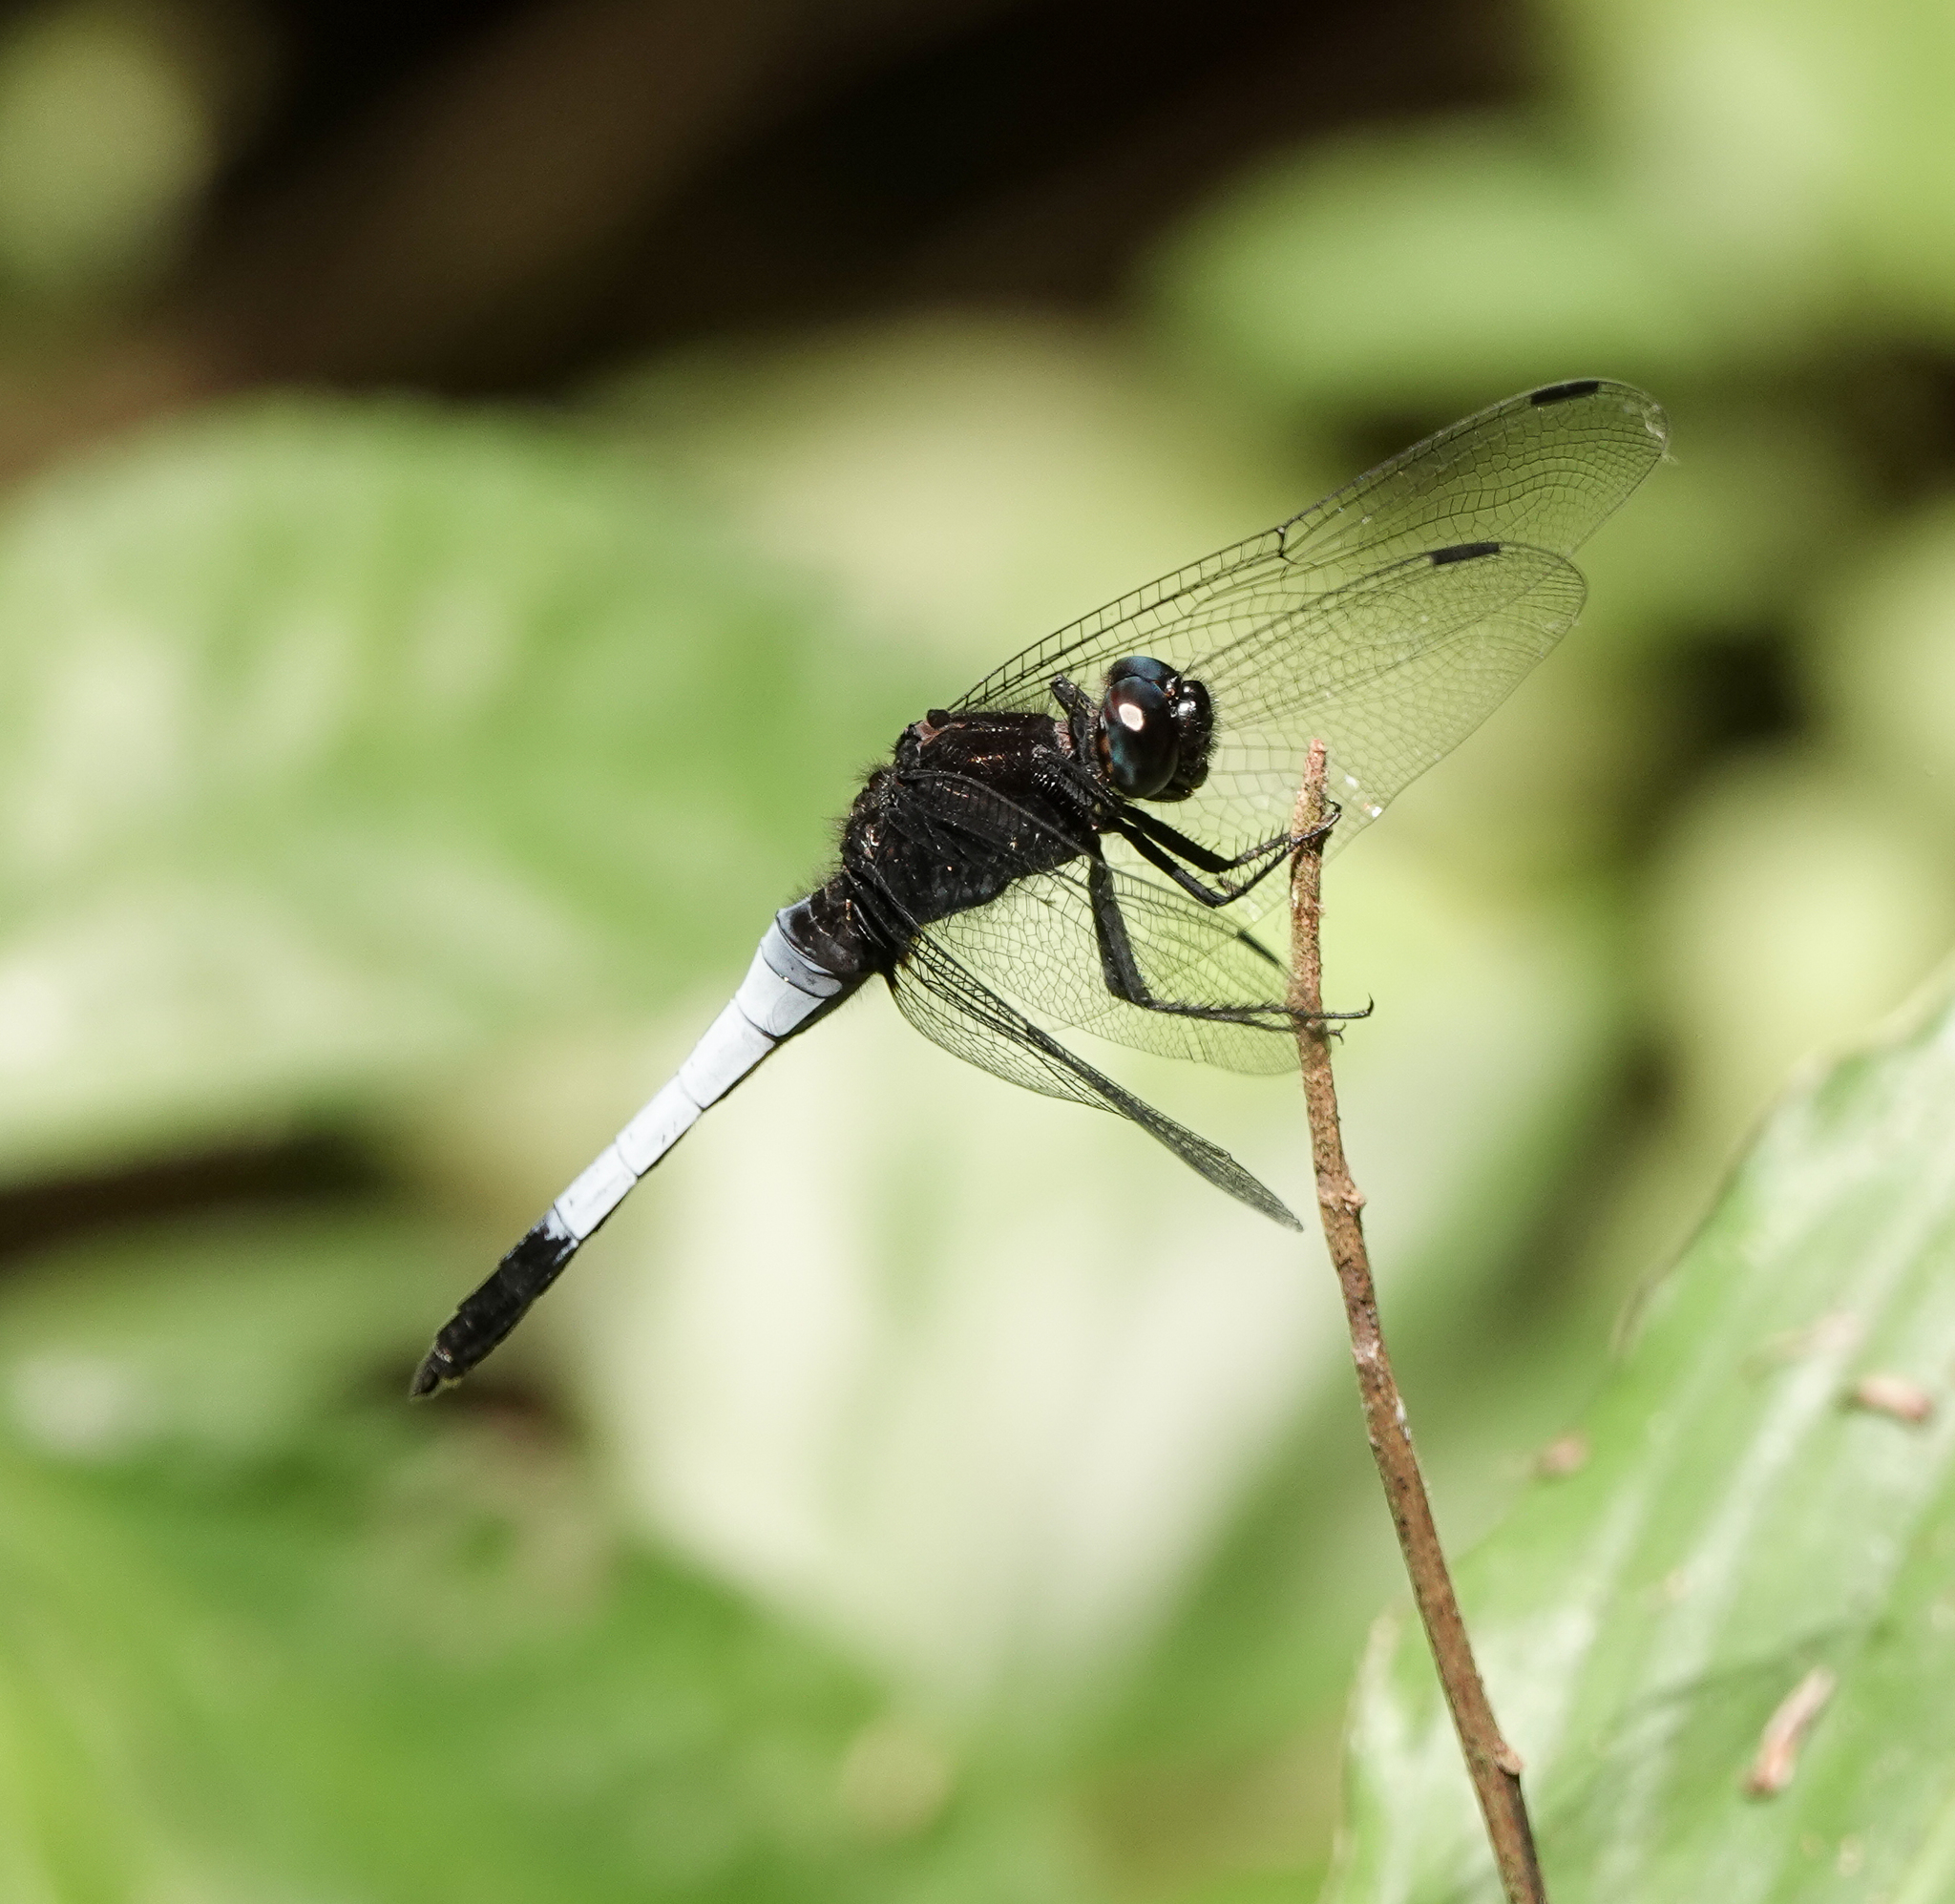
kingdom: Animalia
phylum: Arthropoda
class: Insecta
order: Odonata
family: Libellulidae
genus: Orthetrum
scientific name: Orthetrum triangulare
